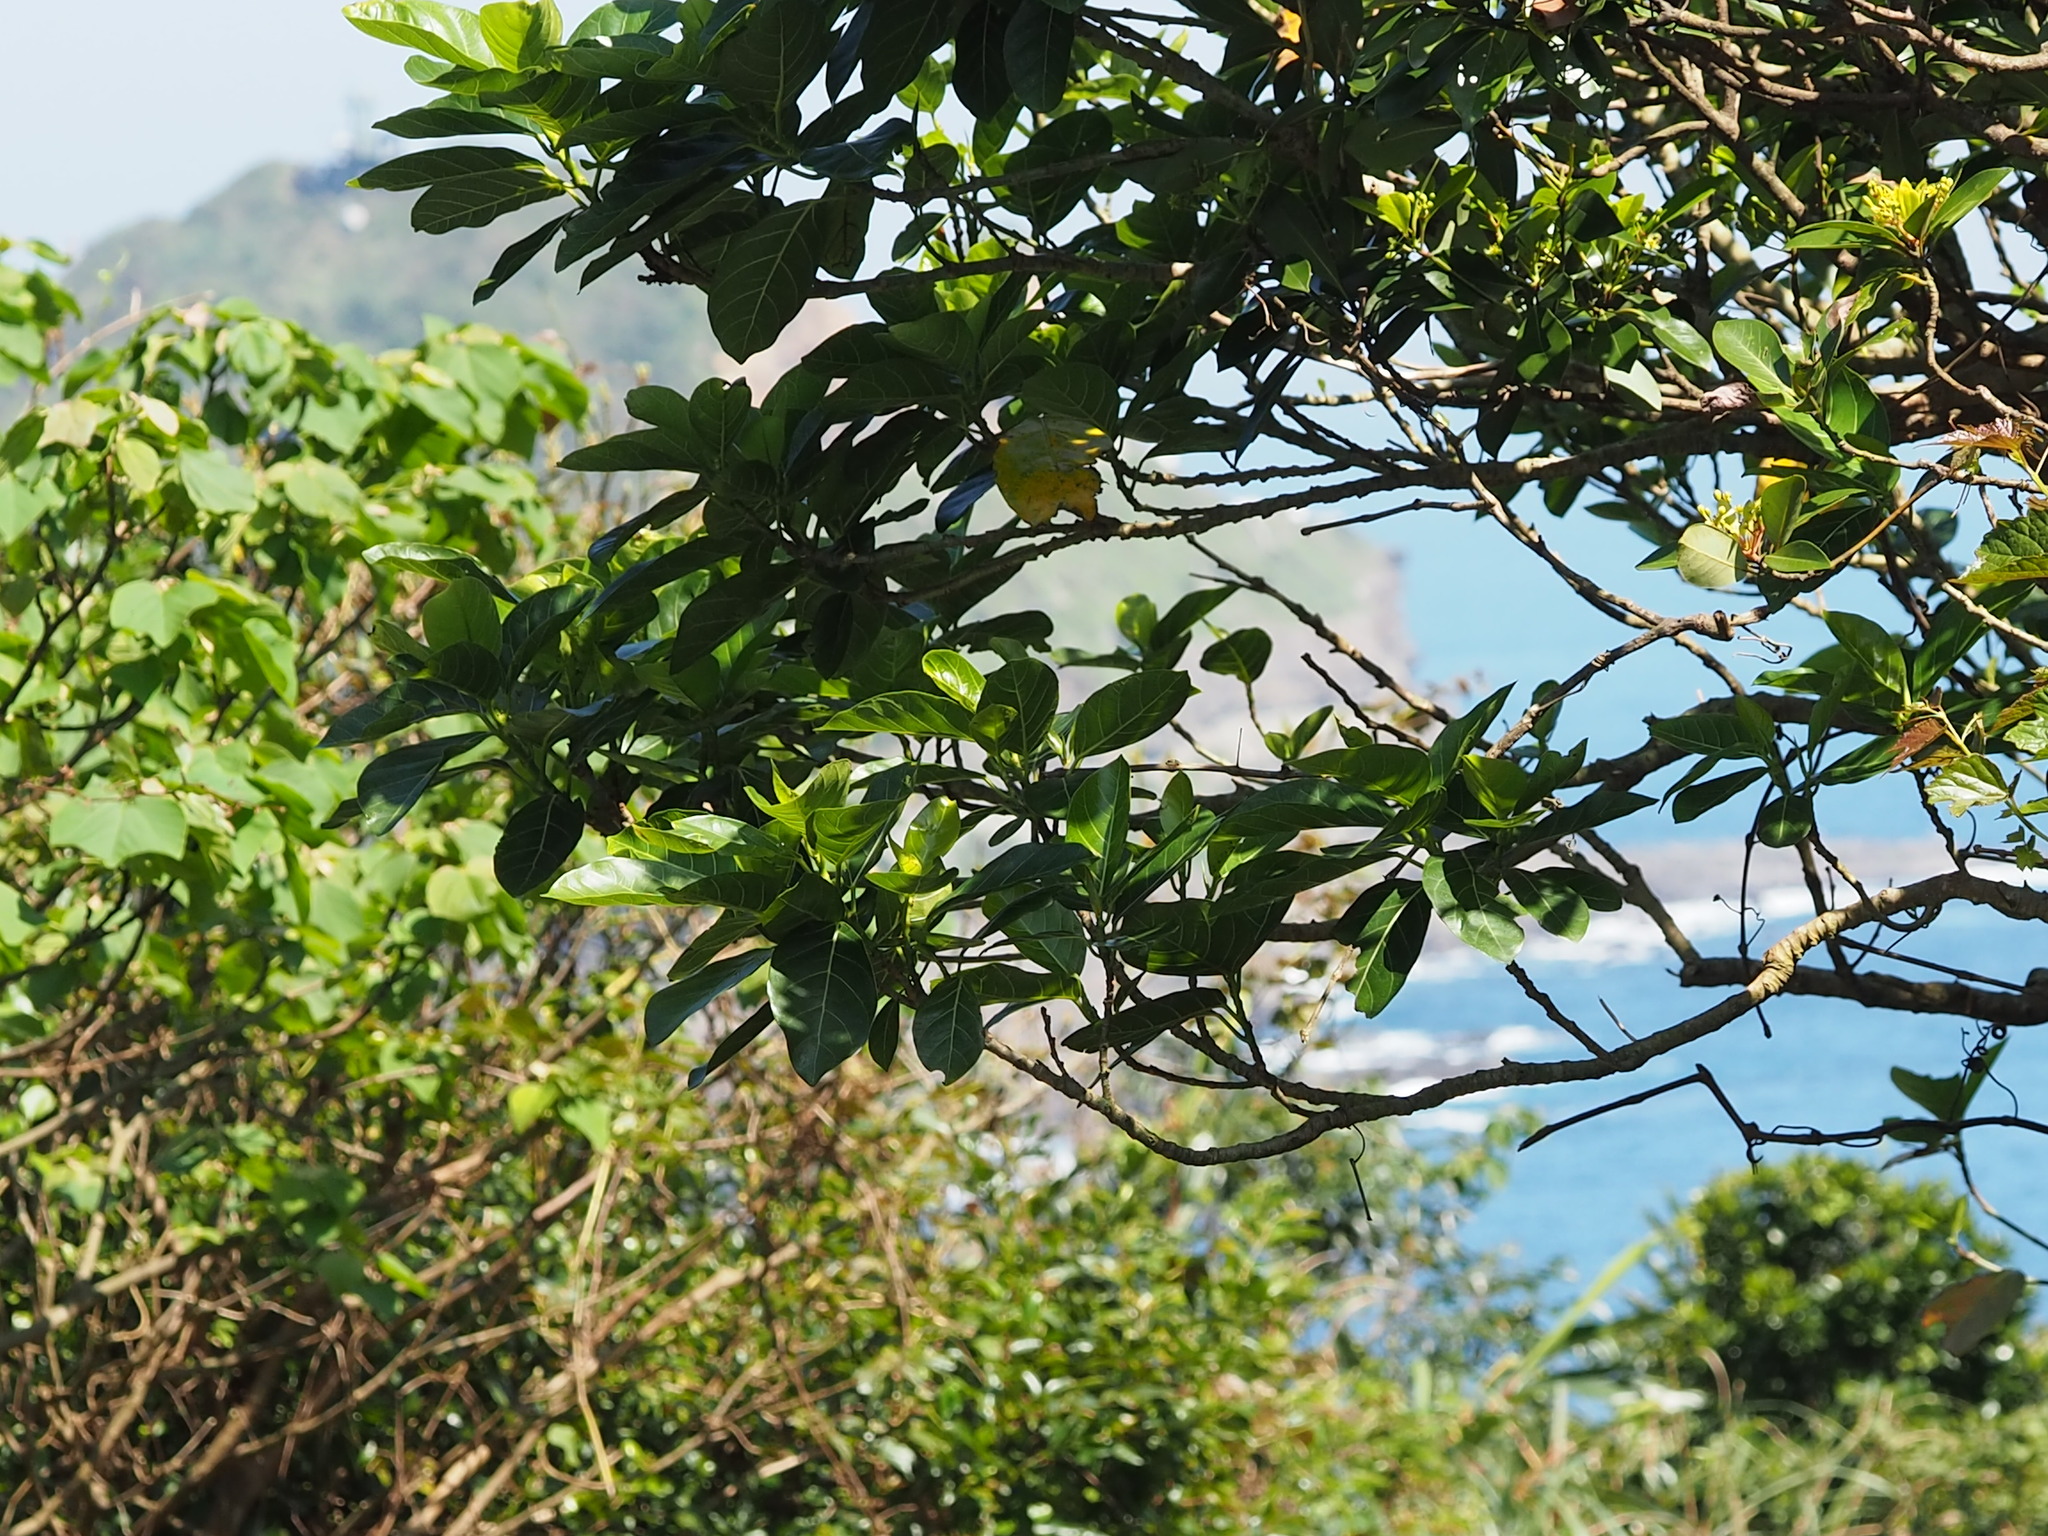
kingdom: Plantae
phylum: Tracheophyta
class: Magnoliopsida
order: Rosales
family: Moraceae
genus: Ficus
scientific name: Ficus septica
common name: Septic fig
